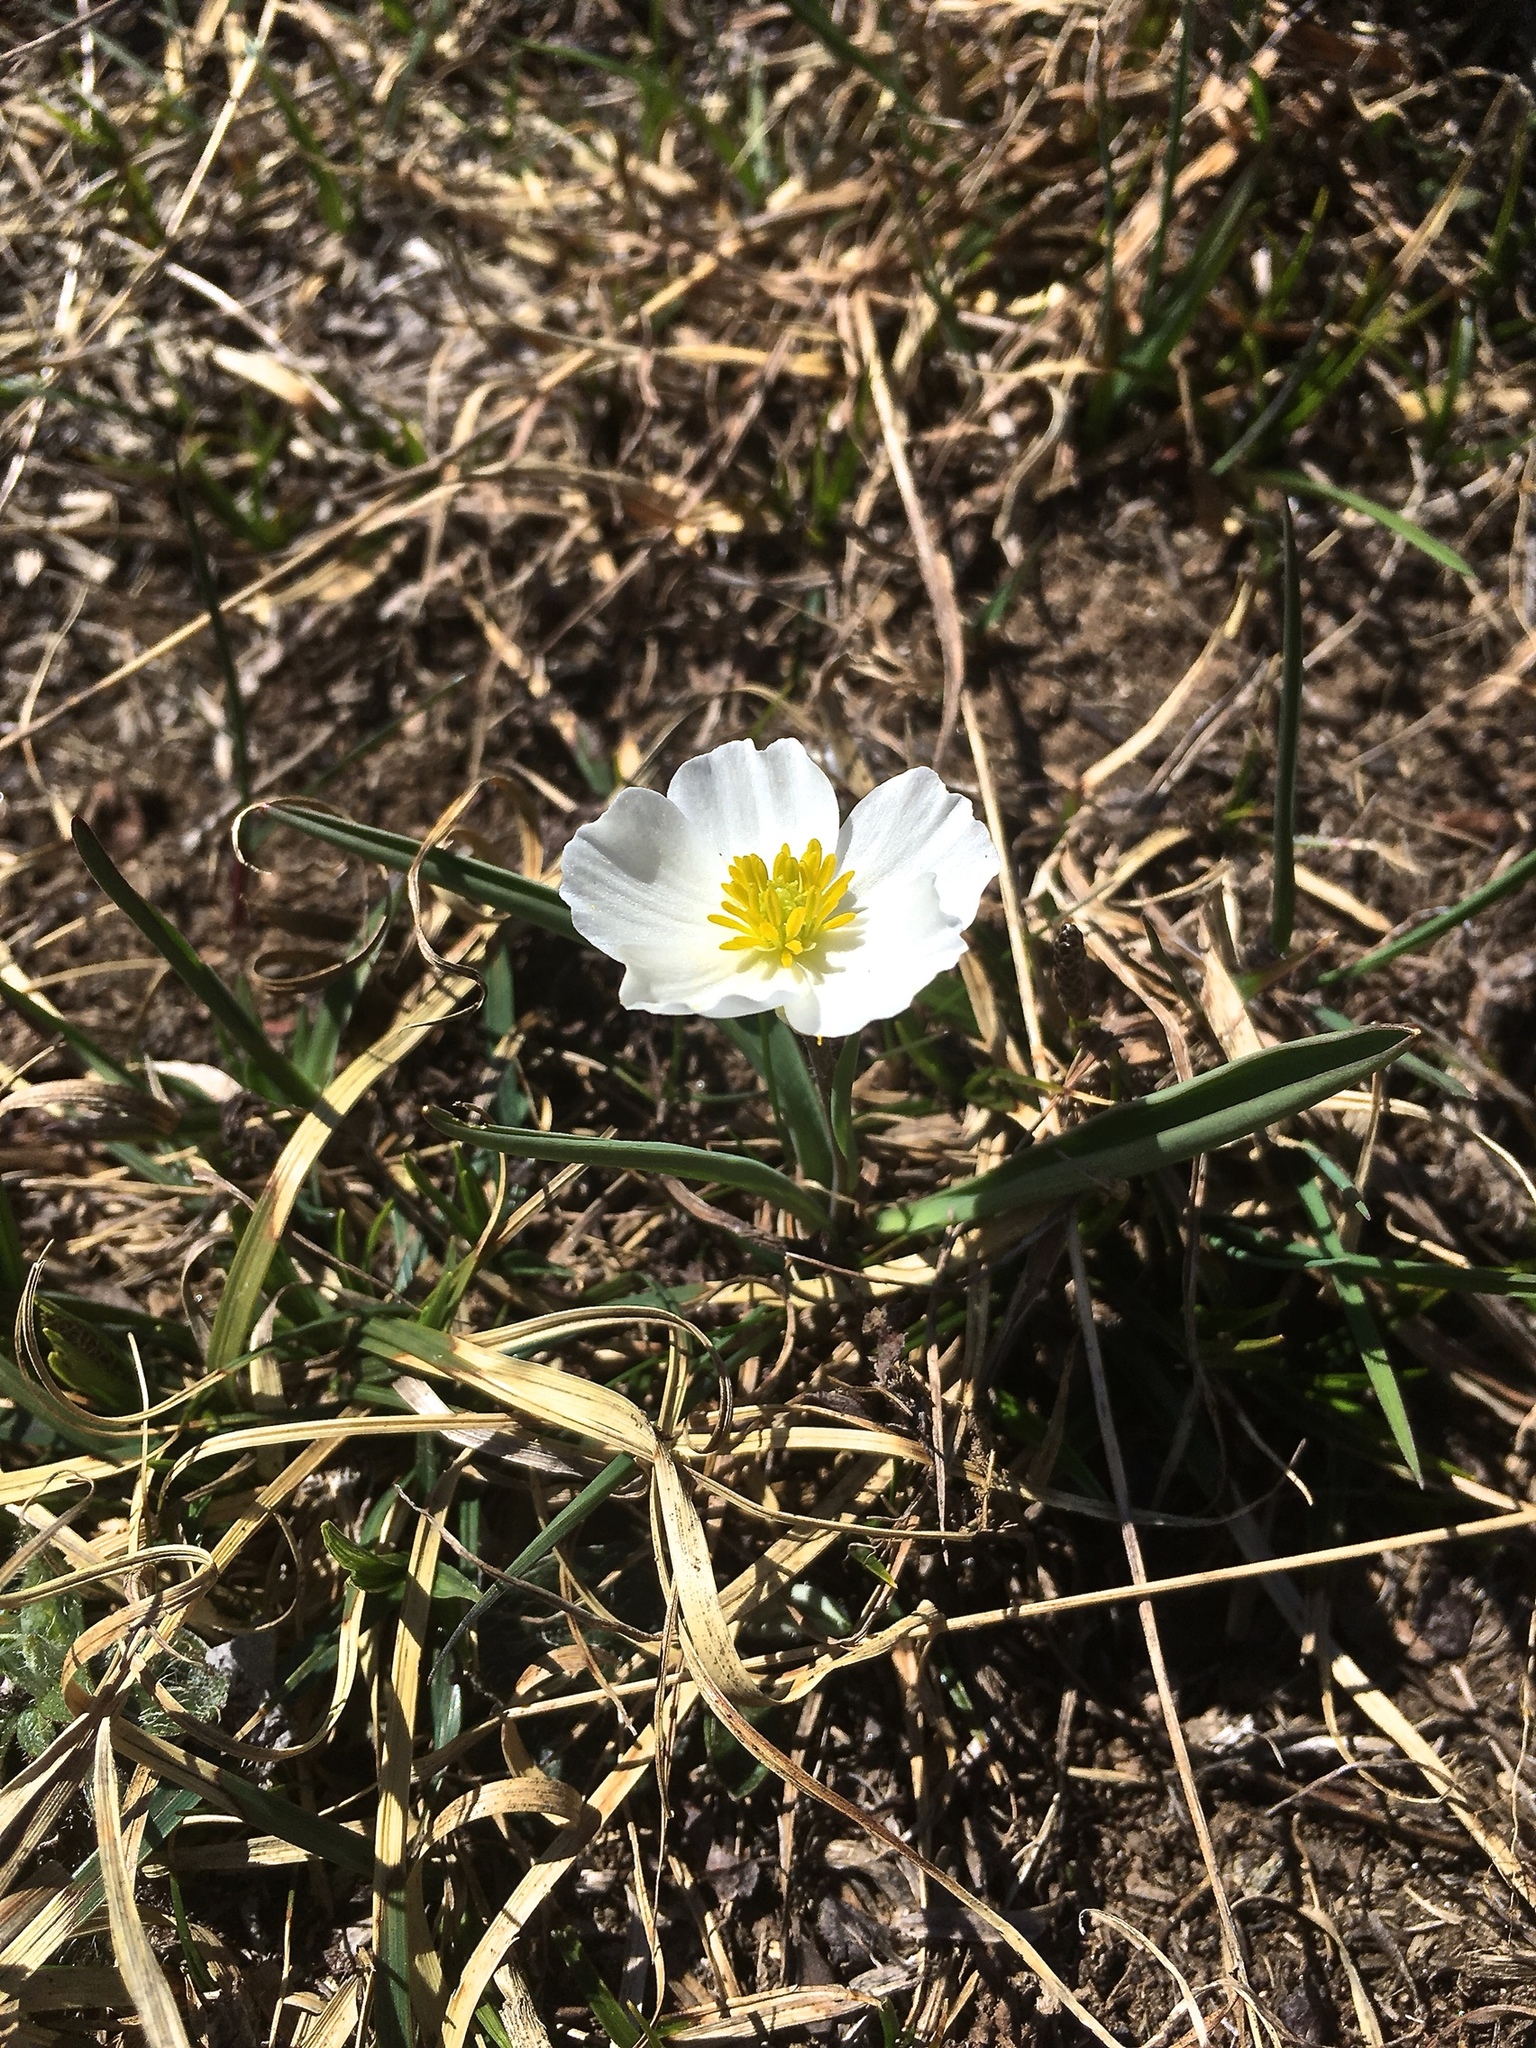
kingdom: Plantae
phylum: Tracheophyta
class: Magnoliopsida
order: Ranunculales
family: Ranunculaceae
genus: Ranunculus
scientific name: Ranunculus kuepferi
